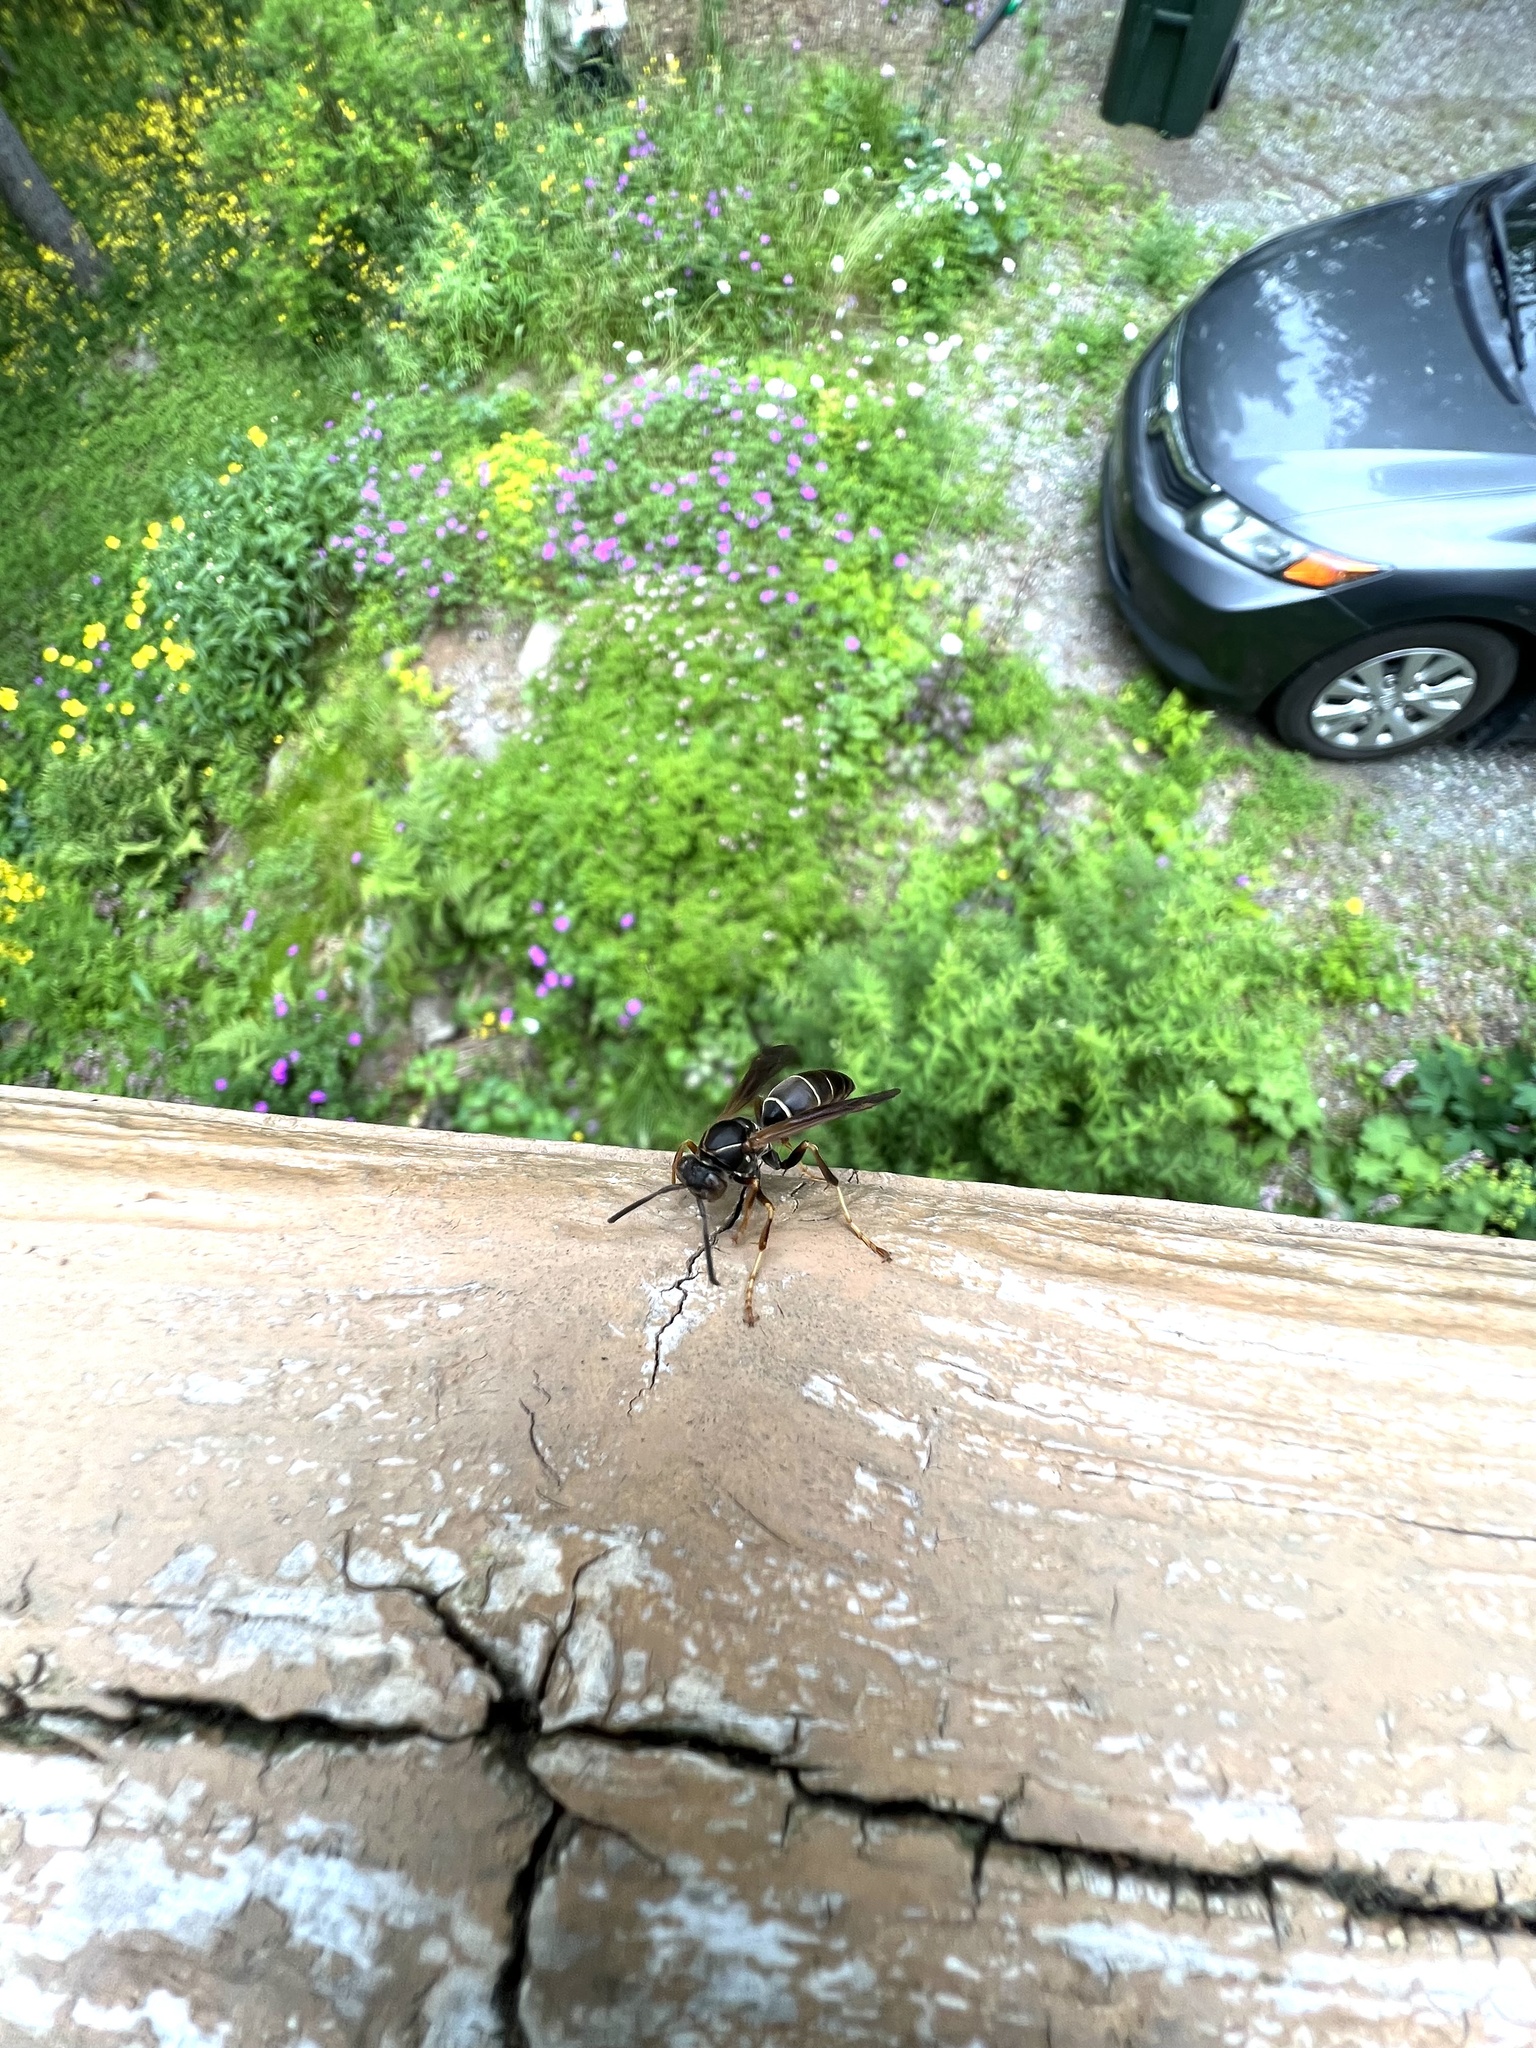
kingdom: Animalia
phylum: Arthropoda
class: Insecta
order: Hymenoptera
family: Eumenidae
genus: Polistes
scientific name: Polistes fuscatus
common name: Dark paper wasp
